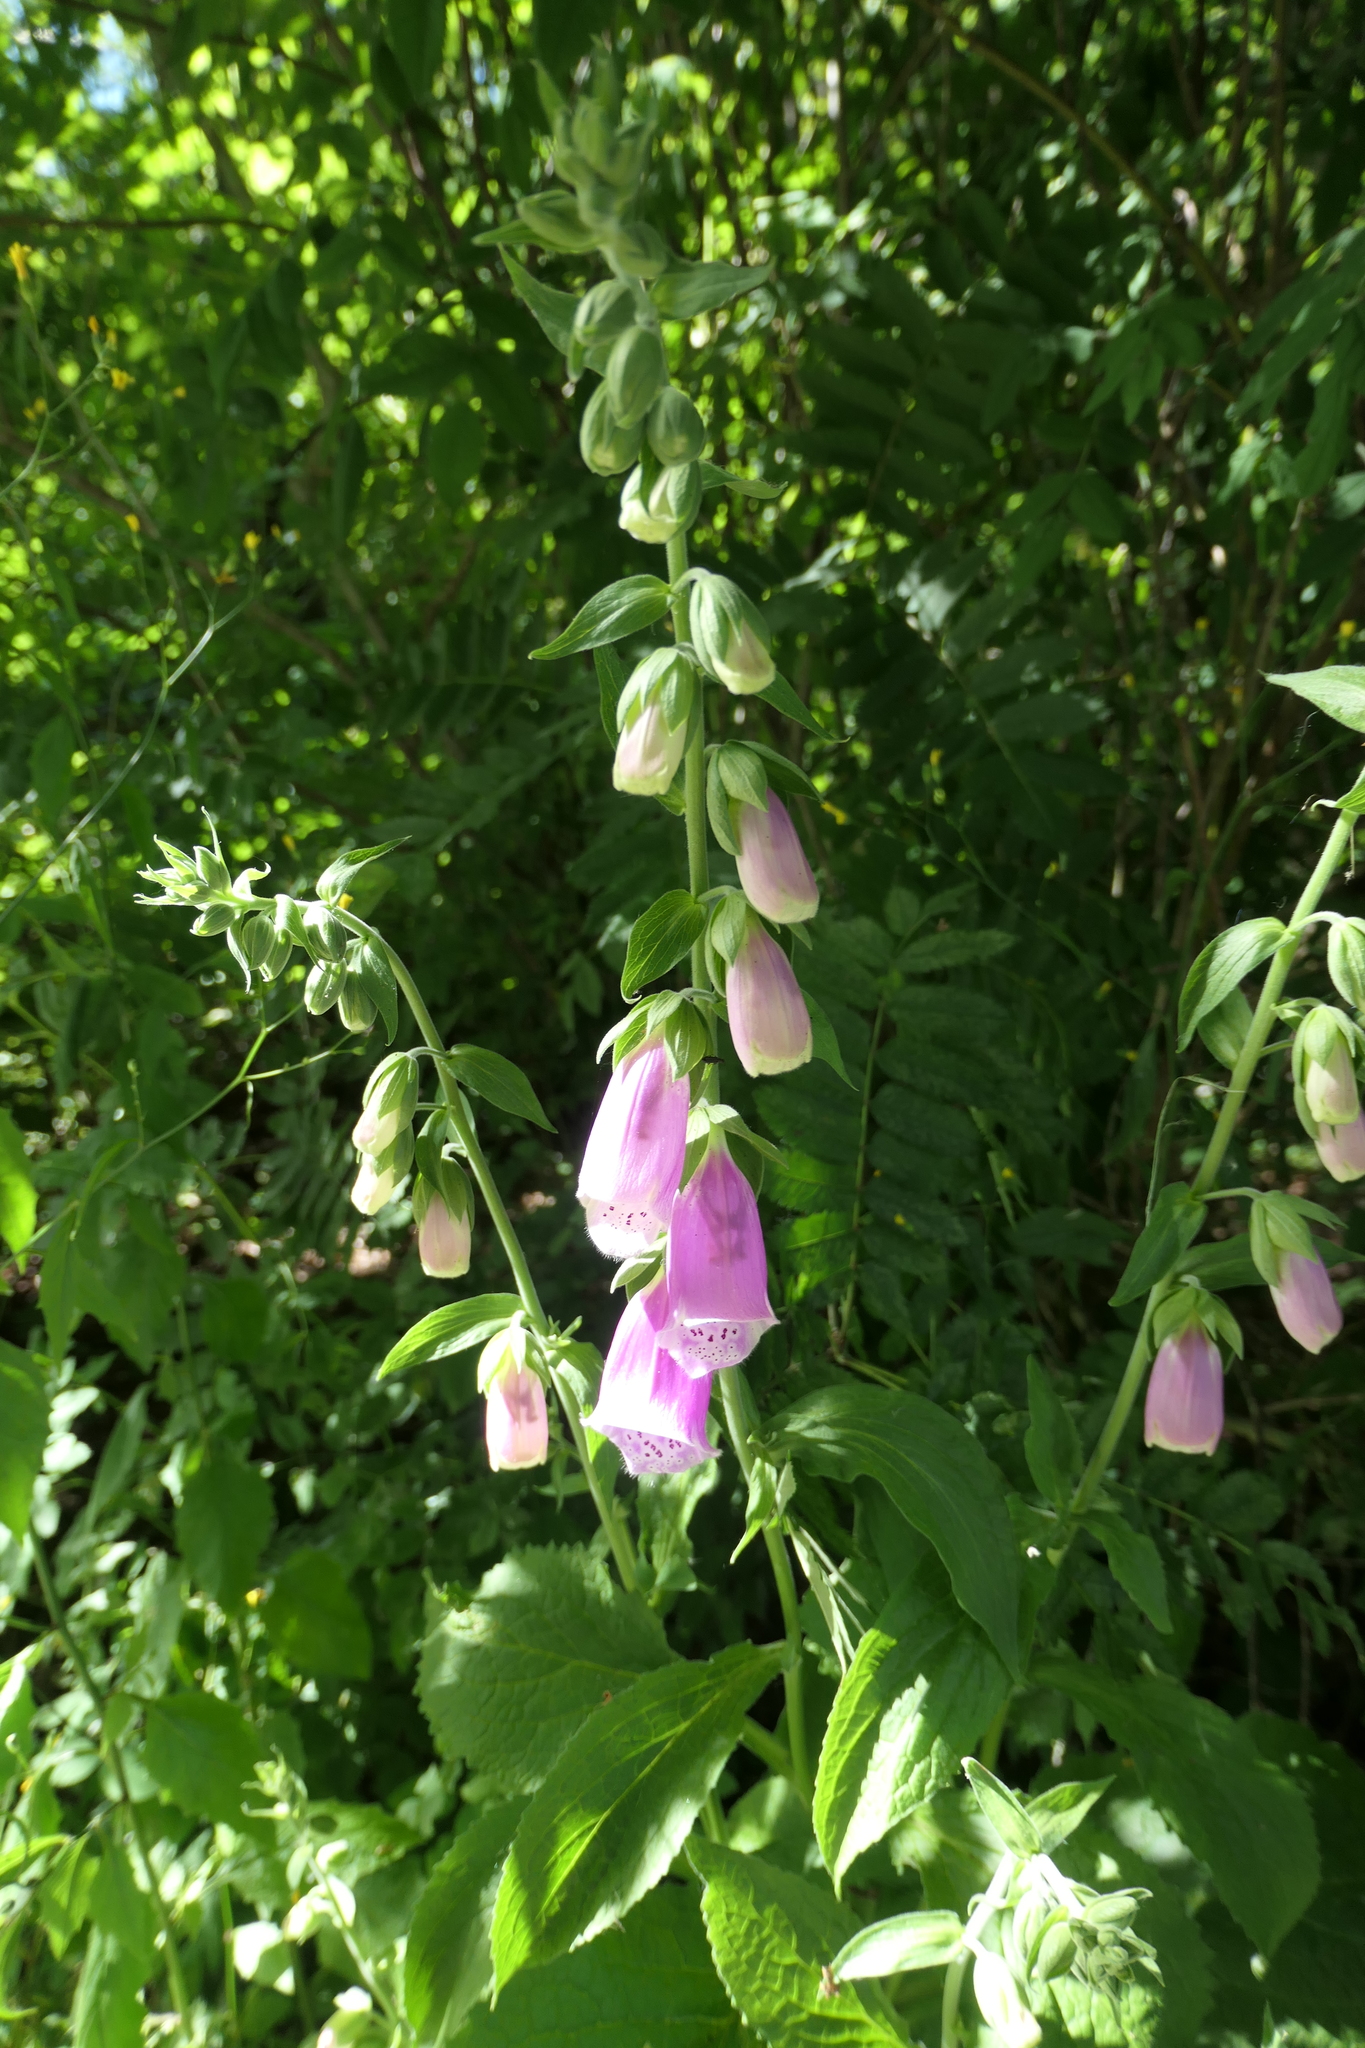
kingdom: Plantae
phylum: Tracheophyta
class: Magnoliopsida
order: Lamiales
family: Plantaginaceae
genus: Digitalis
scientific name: Digitalis purpurea
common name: Foxglove
